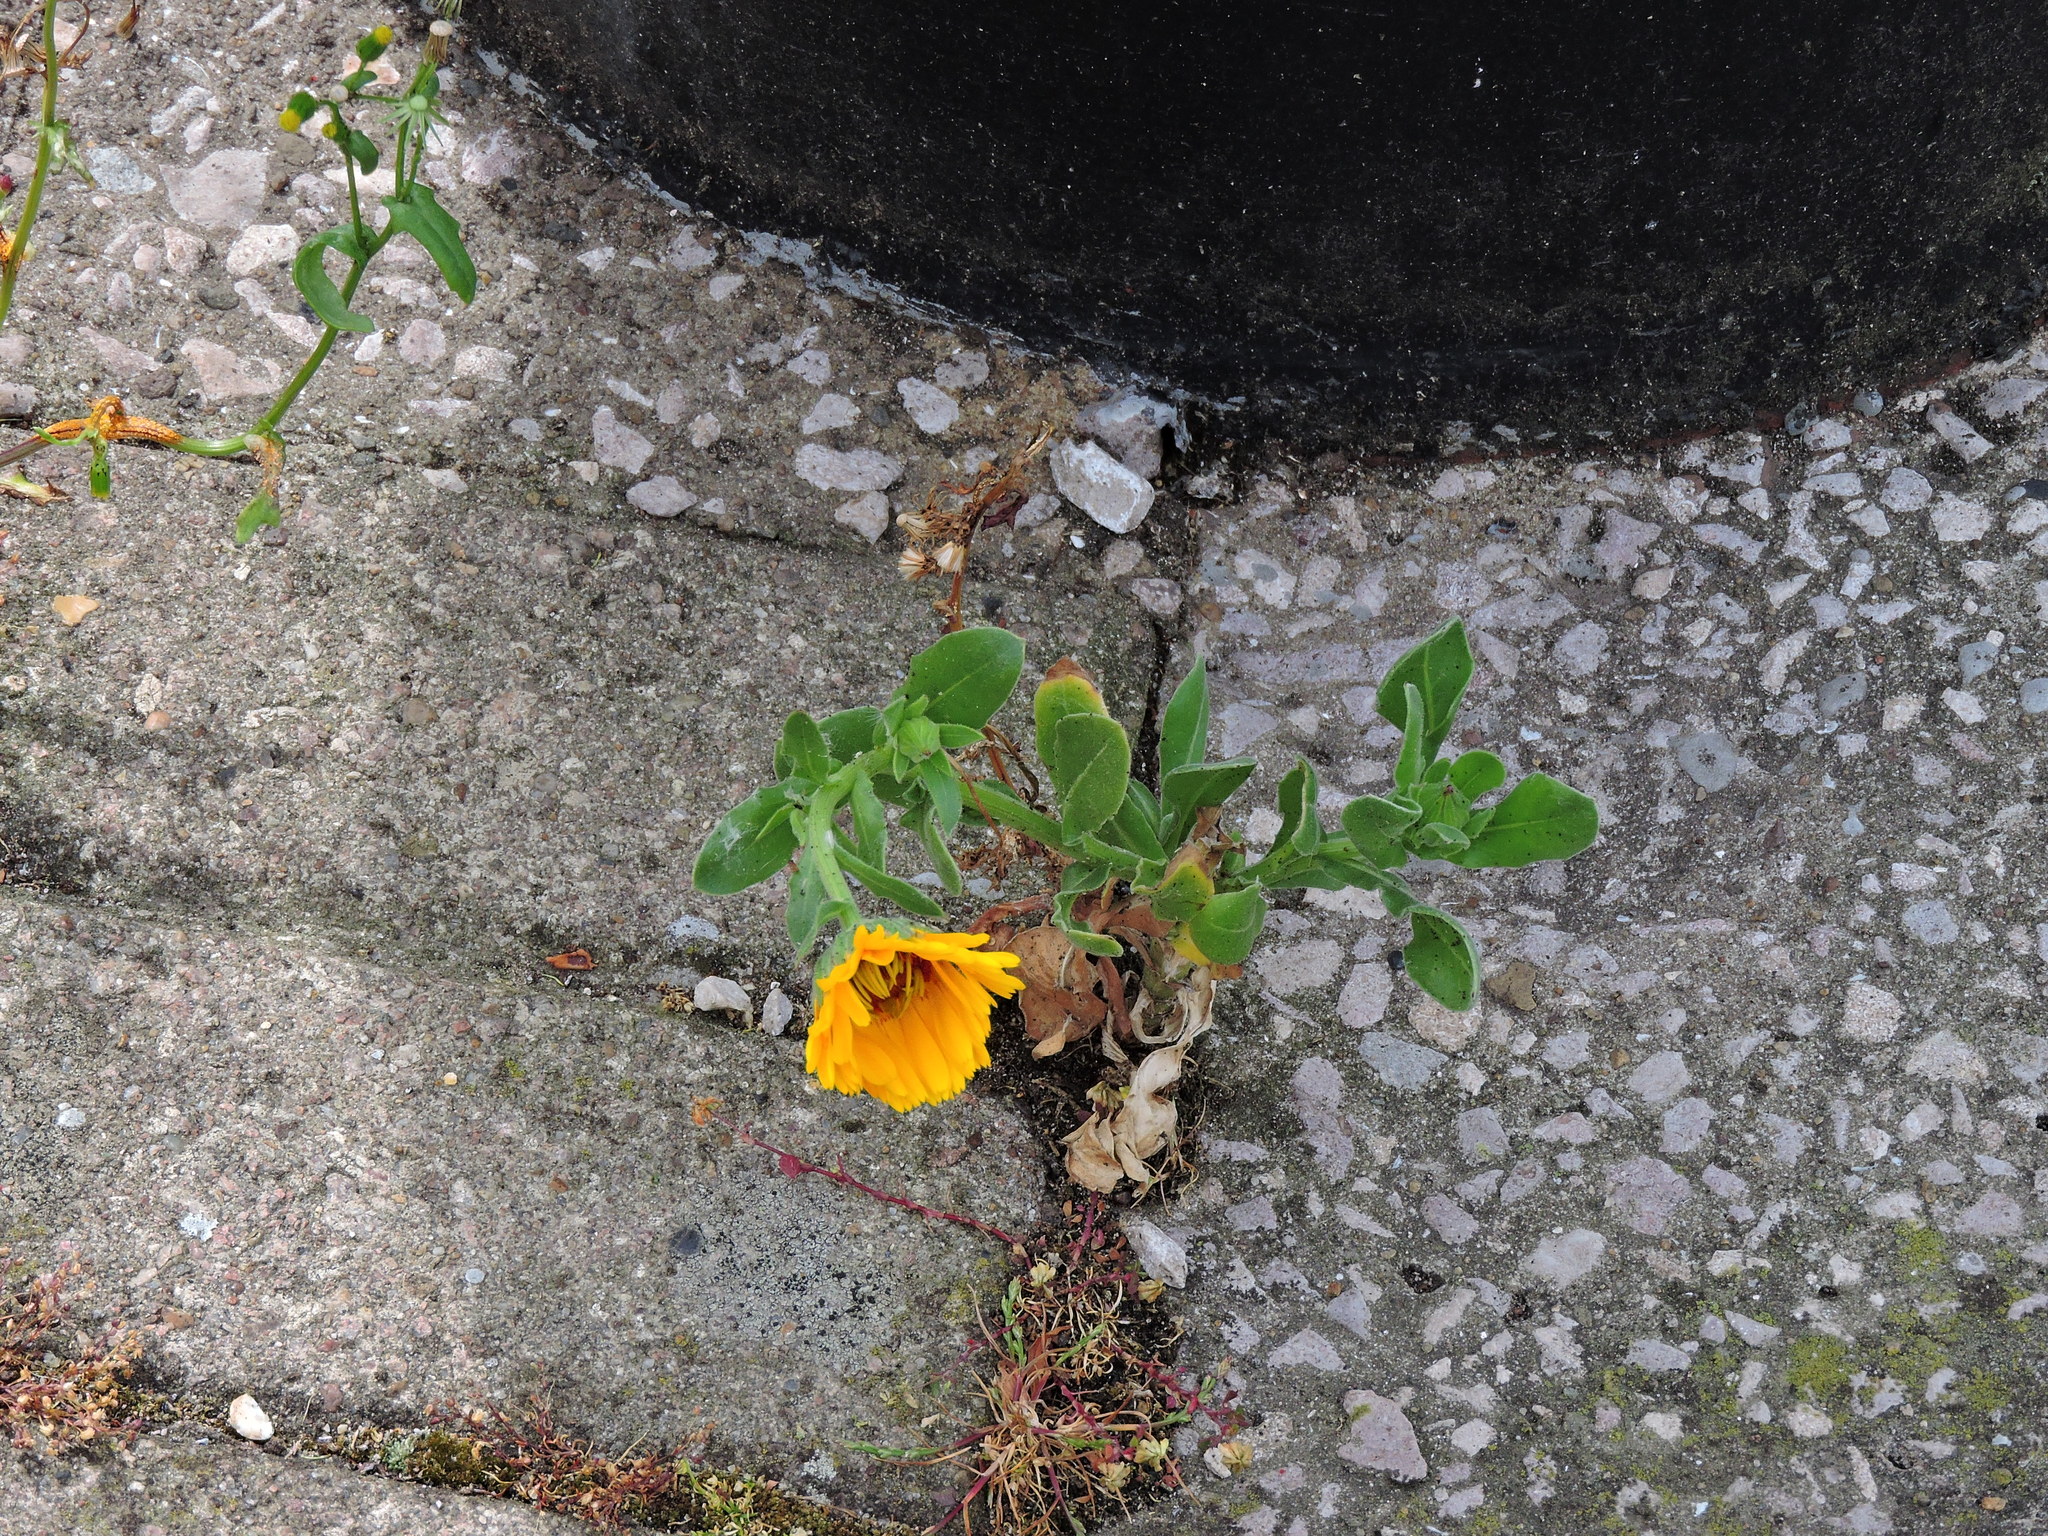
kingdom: Plantae
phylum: Tracheophyta
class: Magnoliopsida
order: Asterales
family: Asteraceae
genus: Calendula
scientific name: Calendula officinalis
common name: Pot marigold
